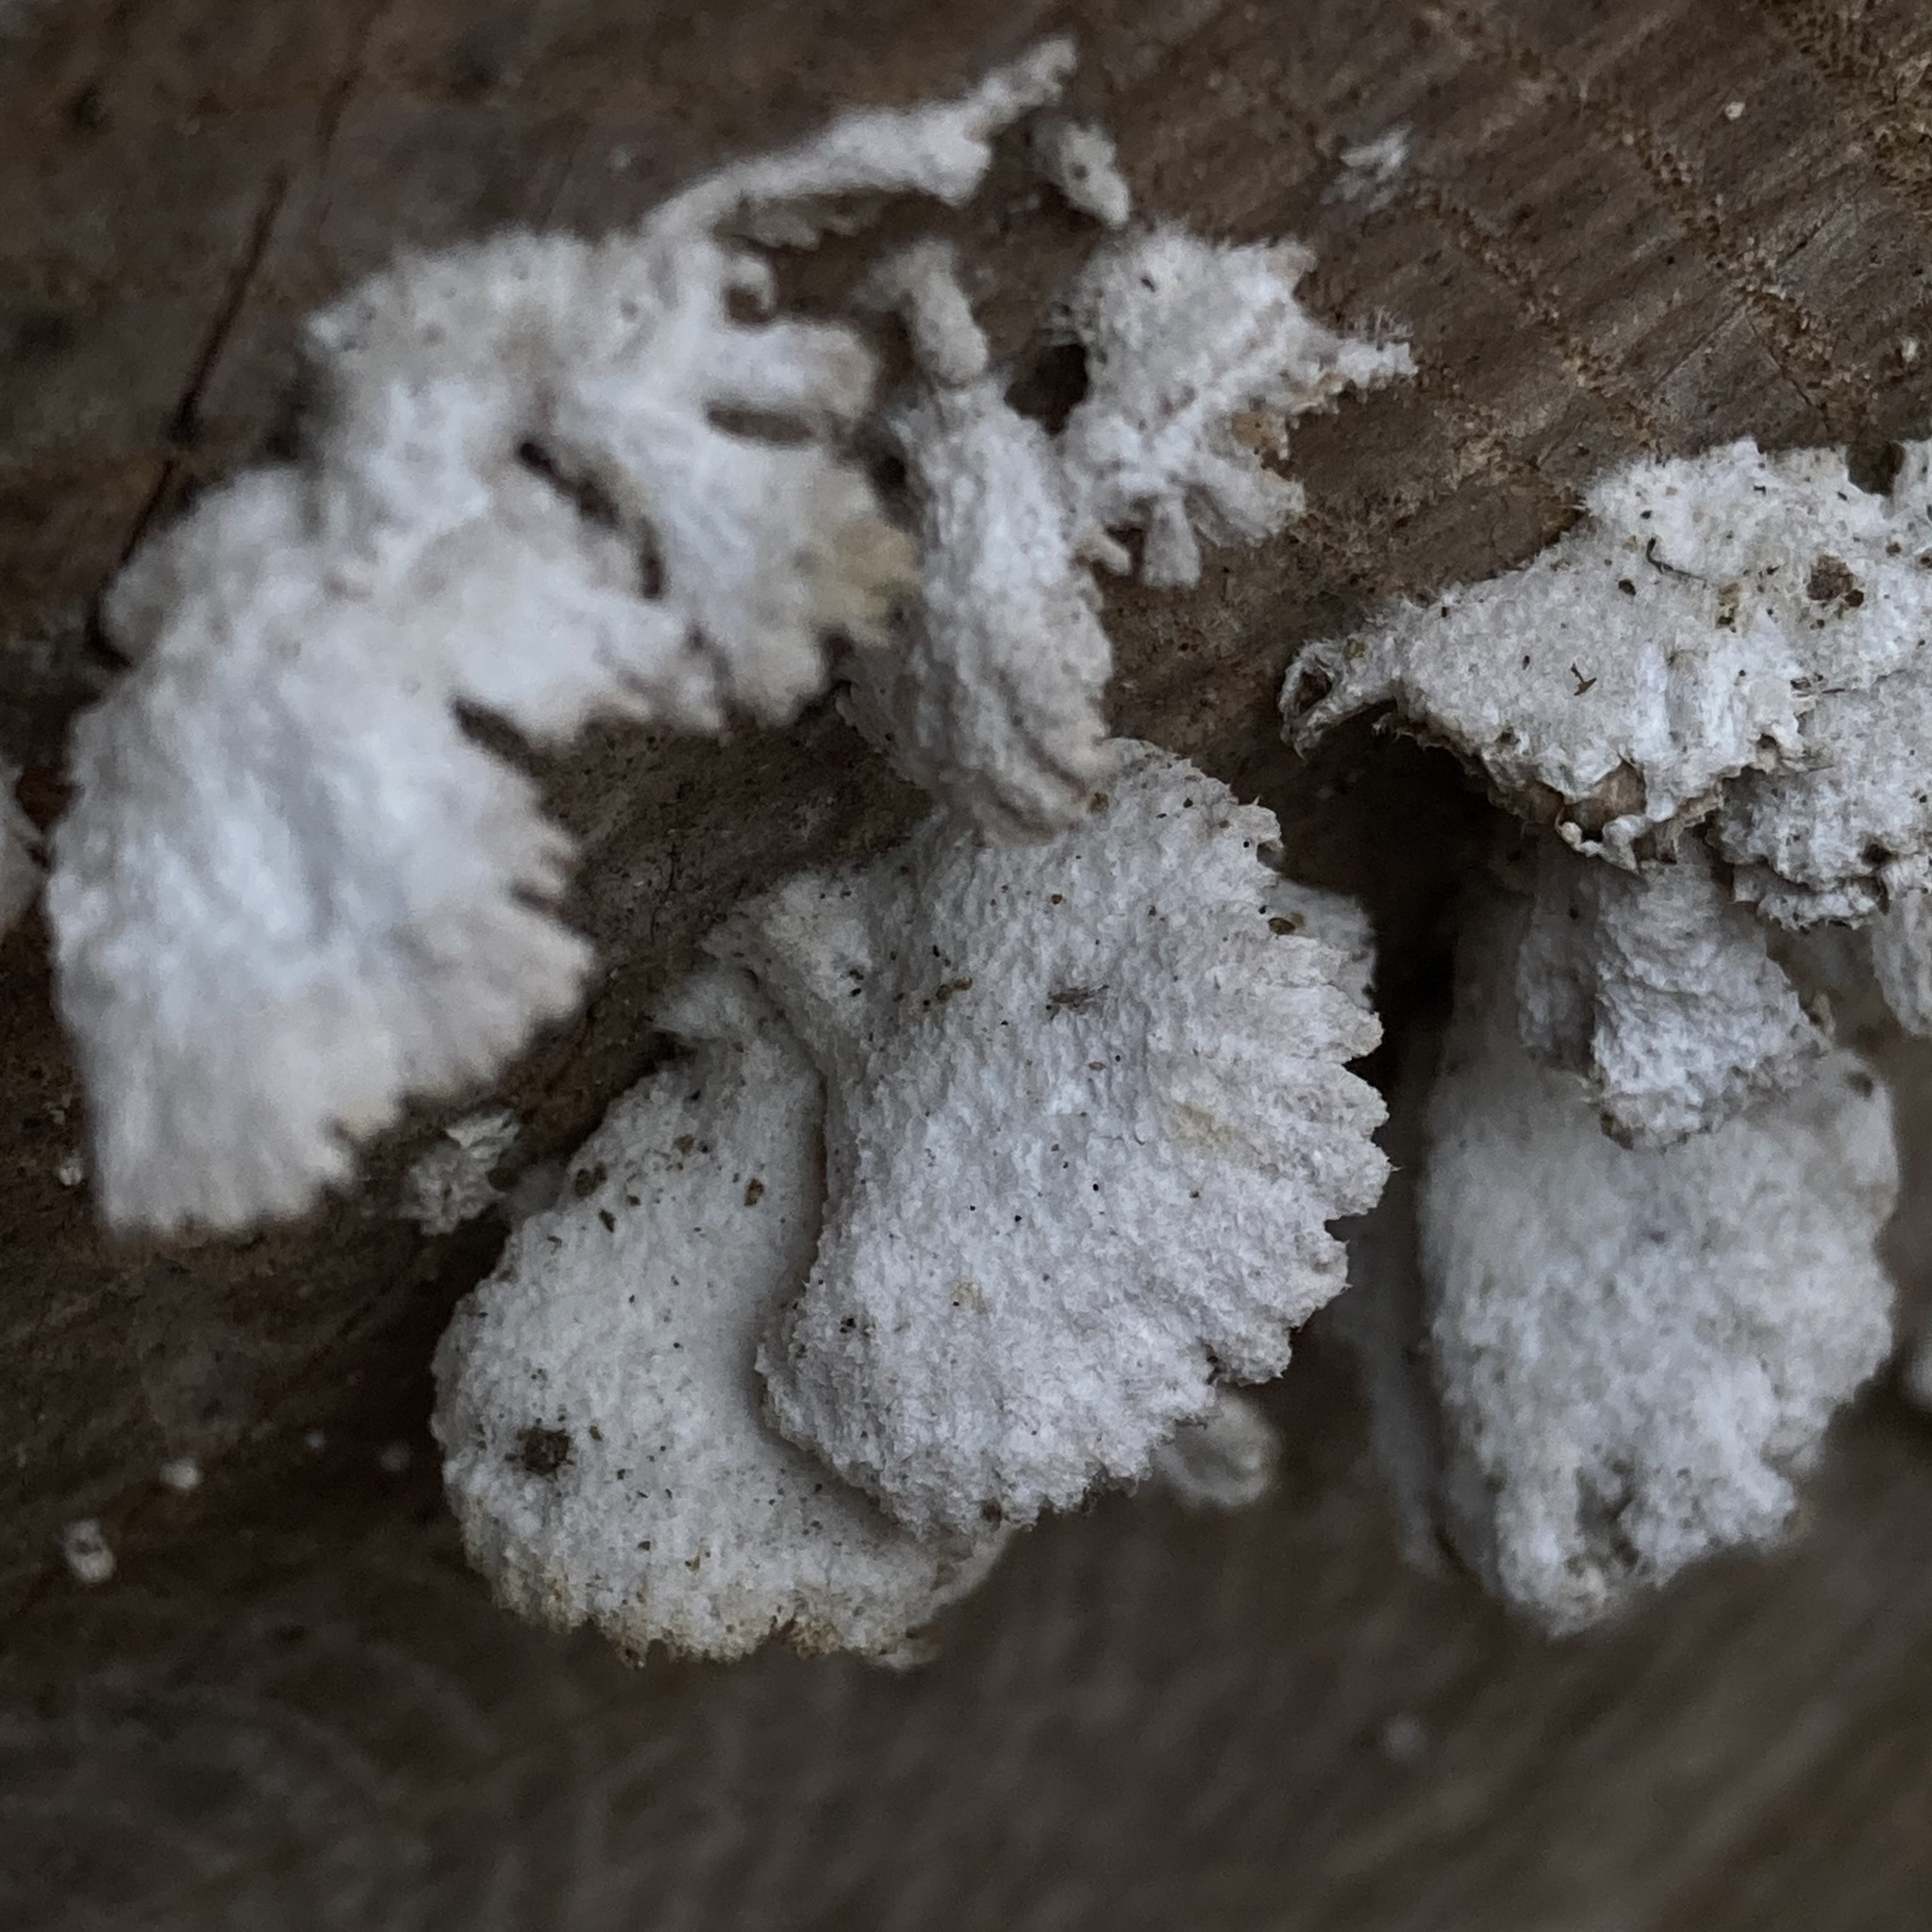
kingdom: Fungi
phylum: Basidiomycota
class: Agaricomycetes
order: Agaricales
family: Schizophyllaceae
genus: Schizophyllum
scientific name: Schizophyllum commune
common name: Common porecrust
